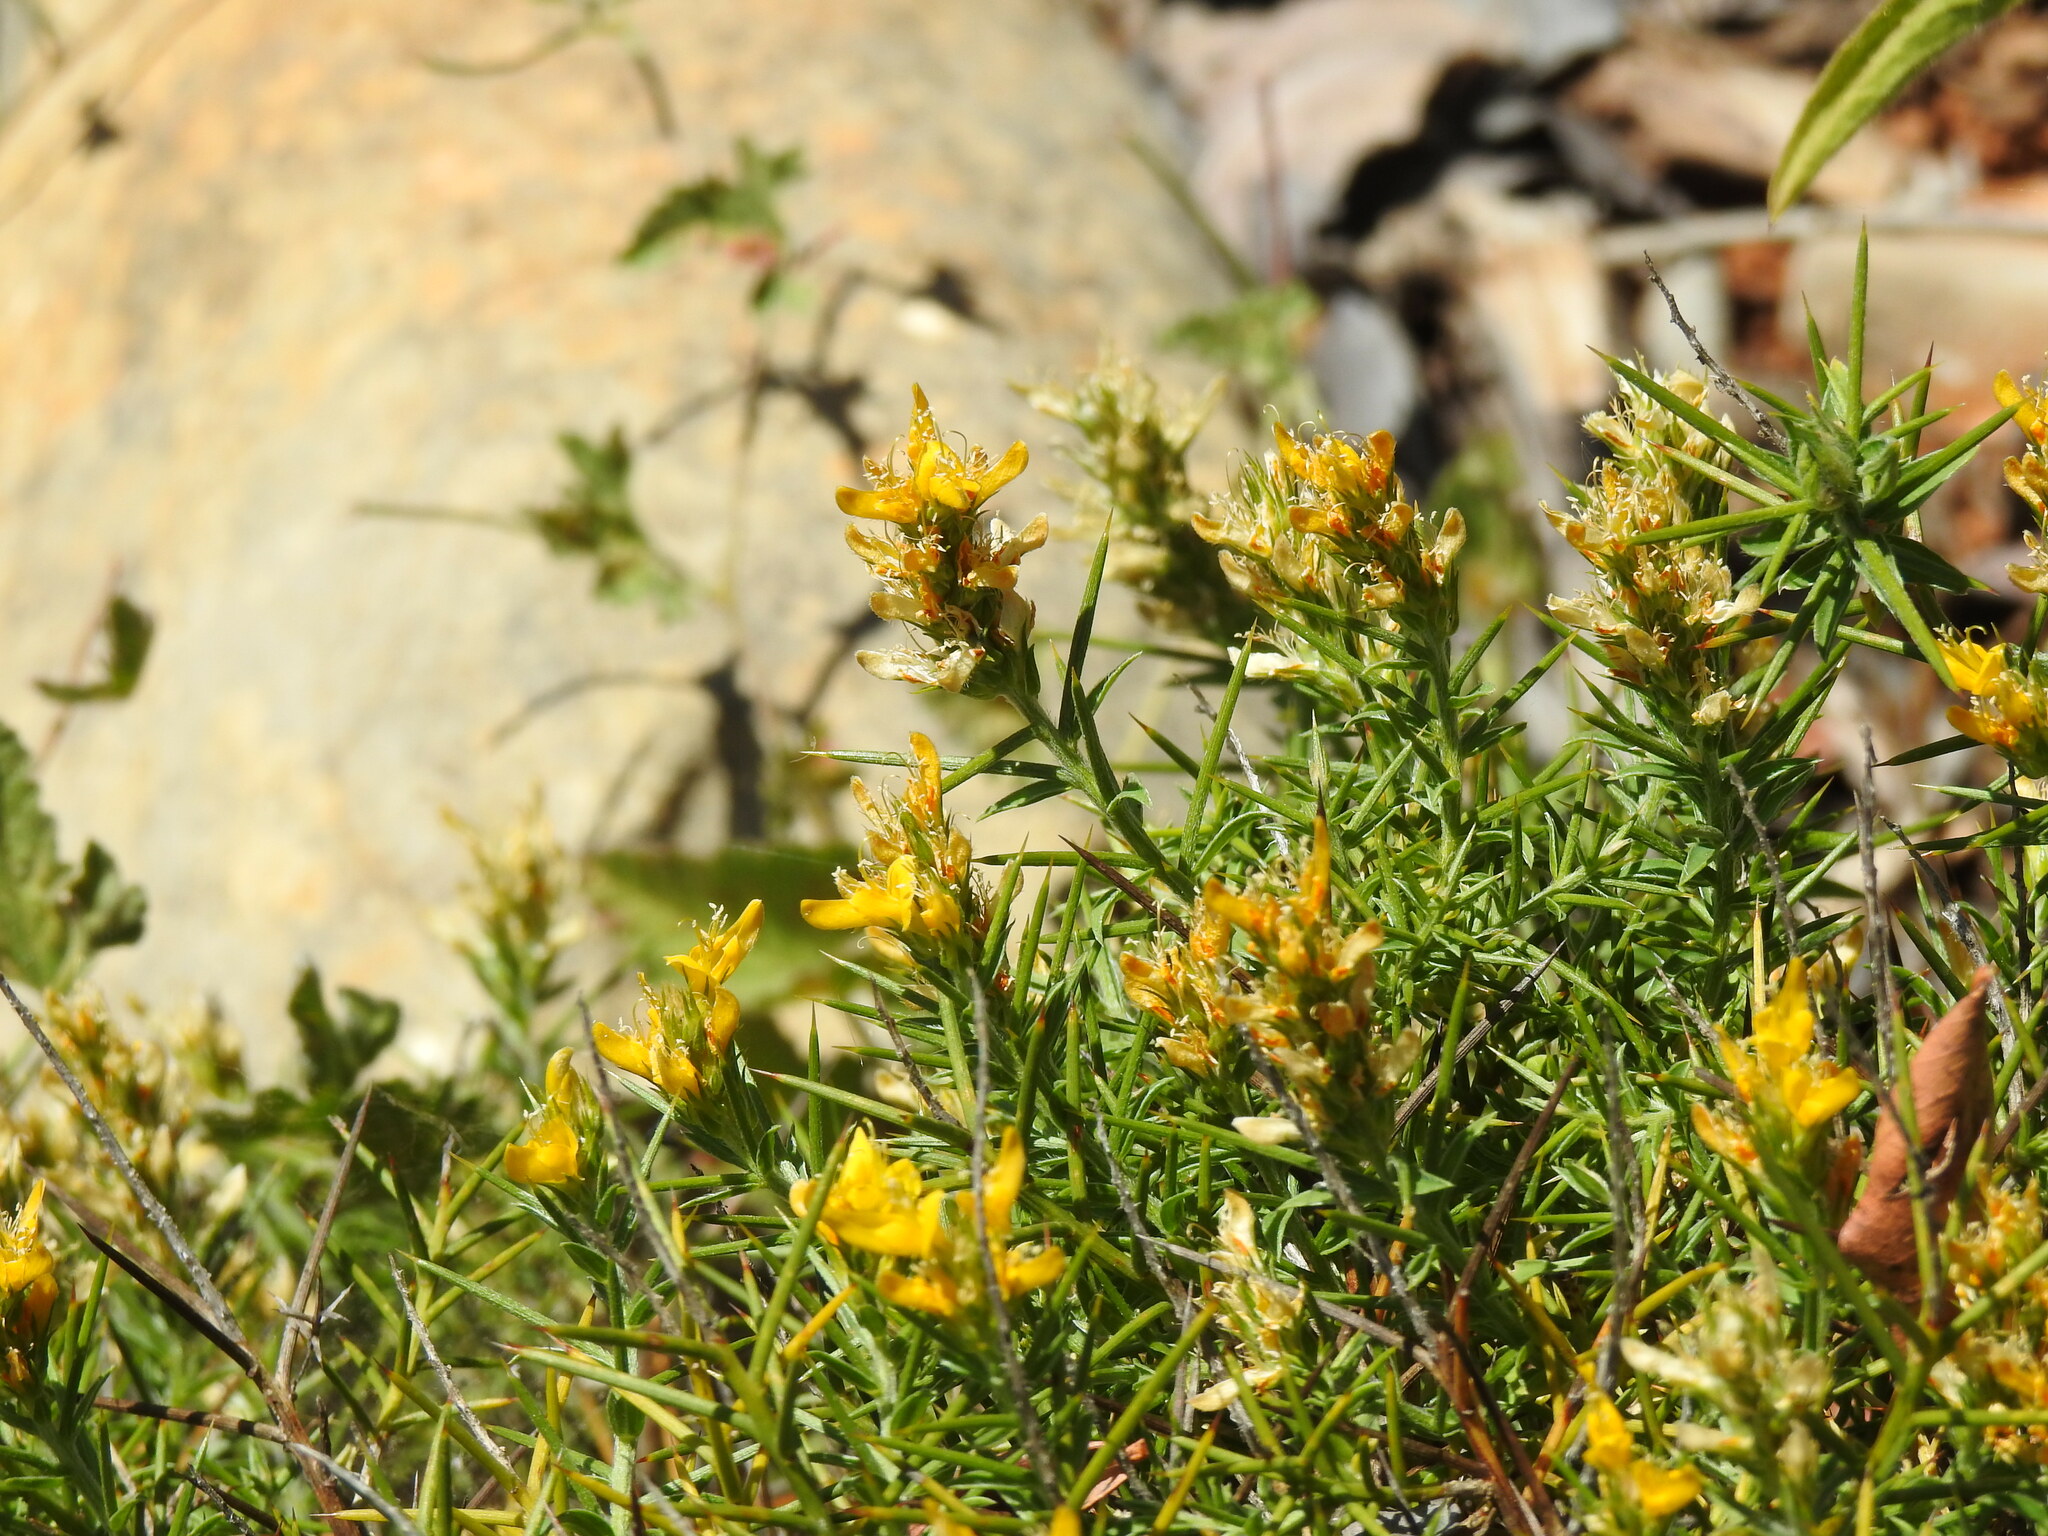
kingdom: Plantae
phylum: Tracheophyta
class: Magnoliopsida
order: Fabales
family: Fabaceae
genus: Genista
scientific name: Genista hirsuta
